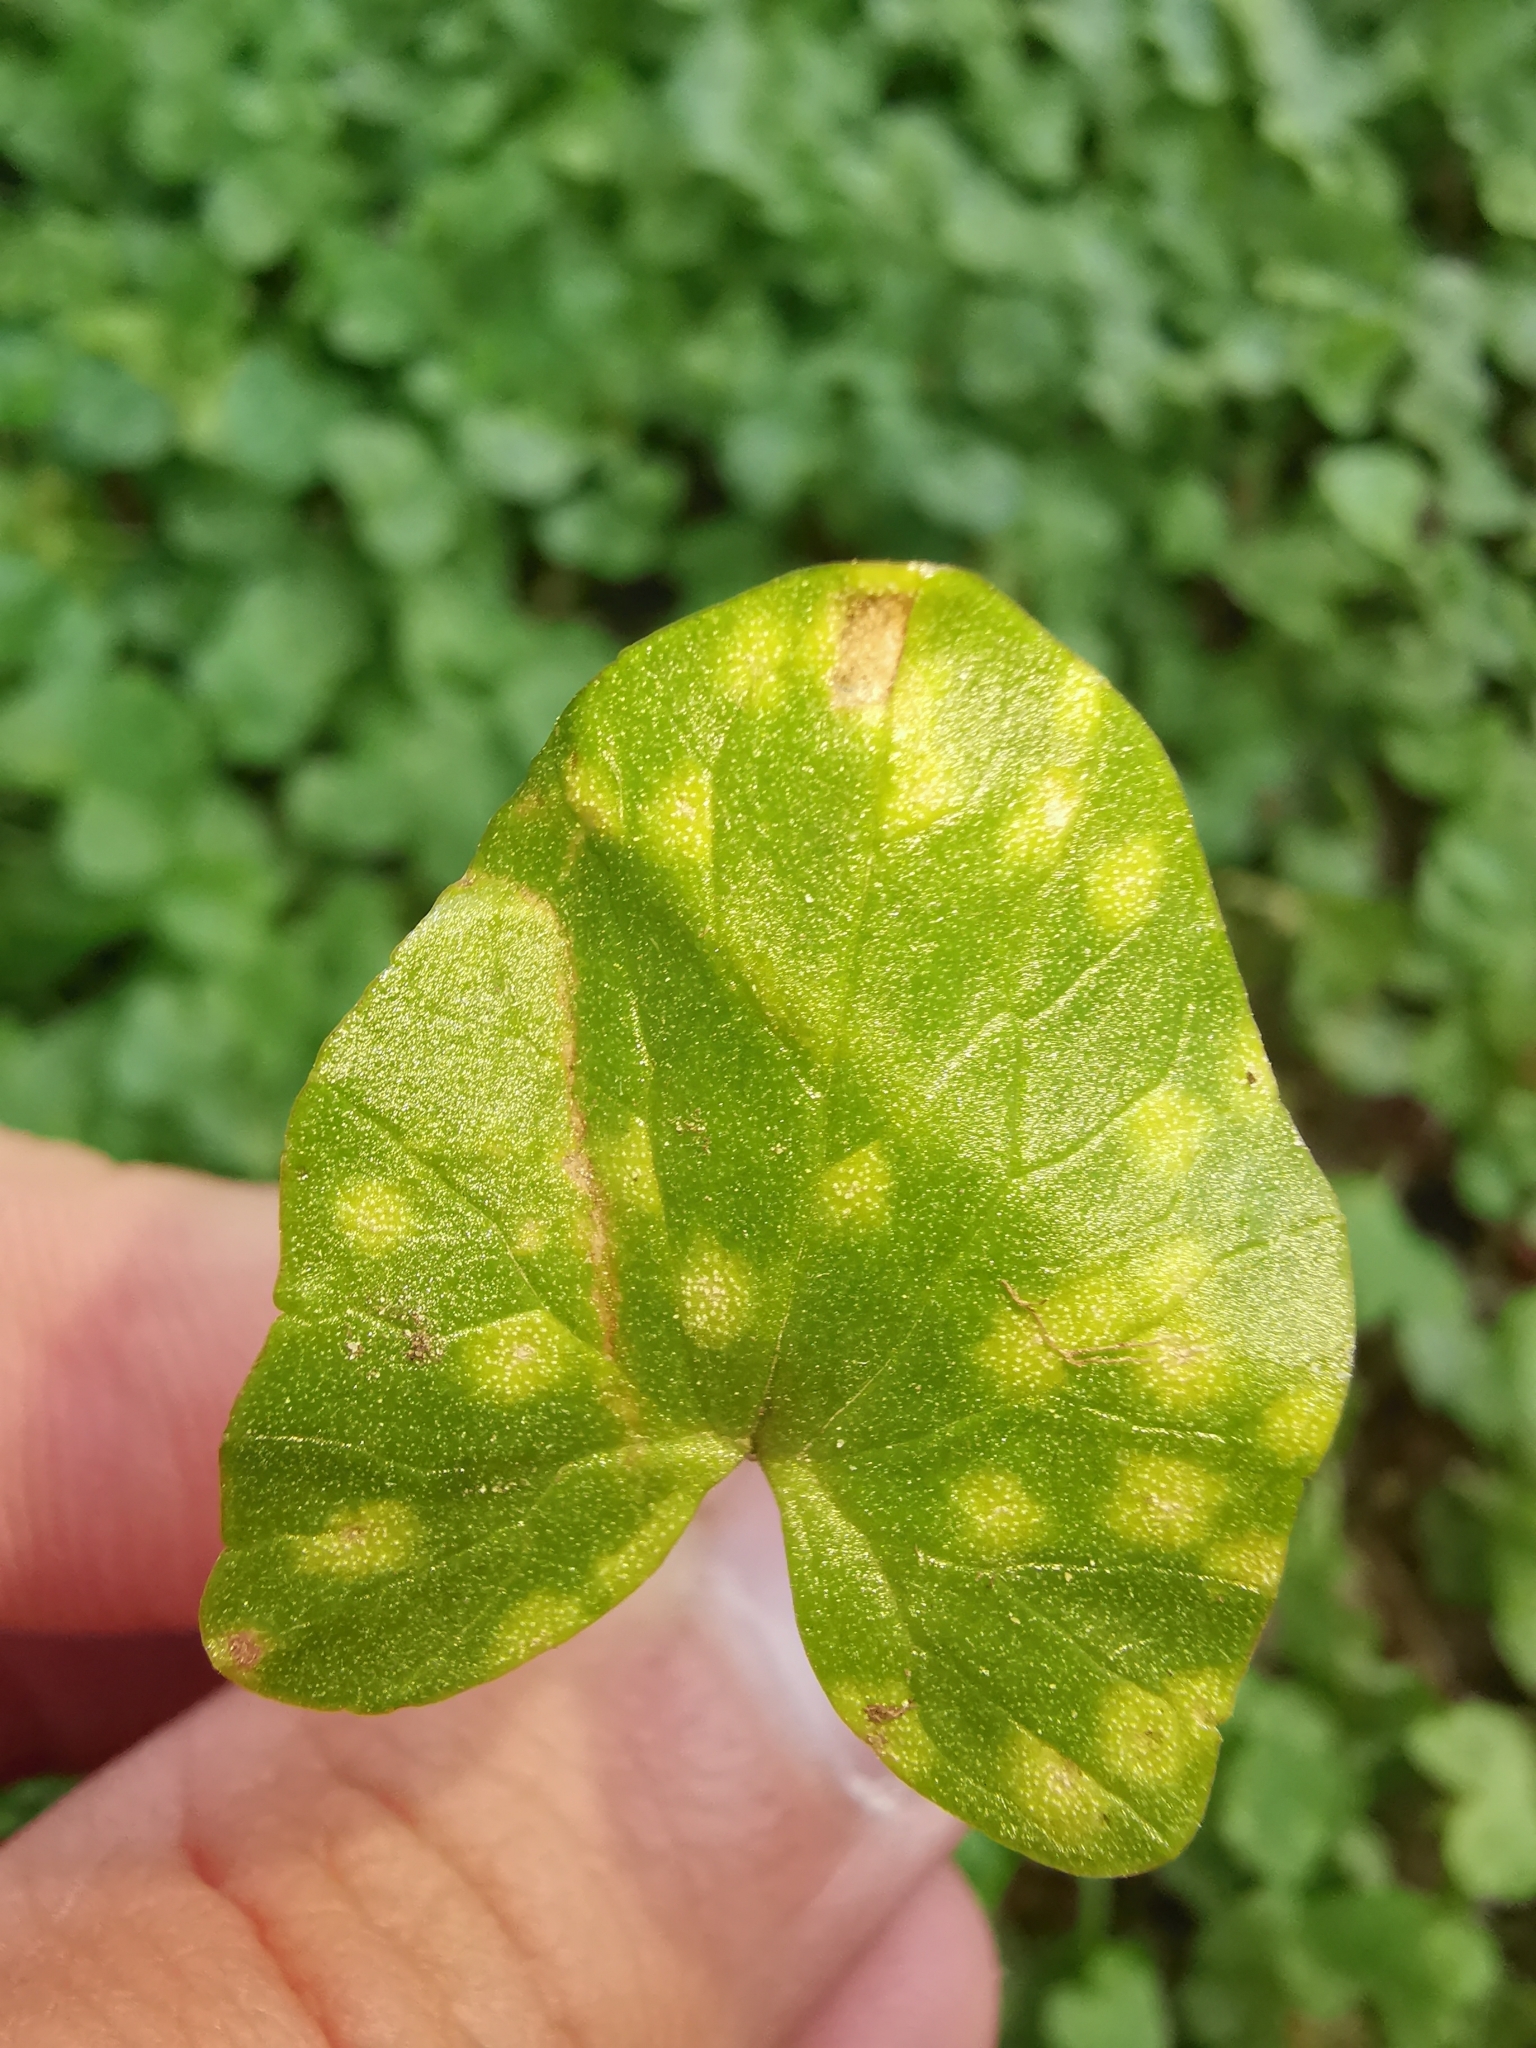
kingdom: Fungi
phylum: Basidiomycota
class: Exobasidiomycetes
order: Entylomatales
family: Entylomataceae
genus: Entyloma
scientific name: Entyloma ficariae
